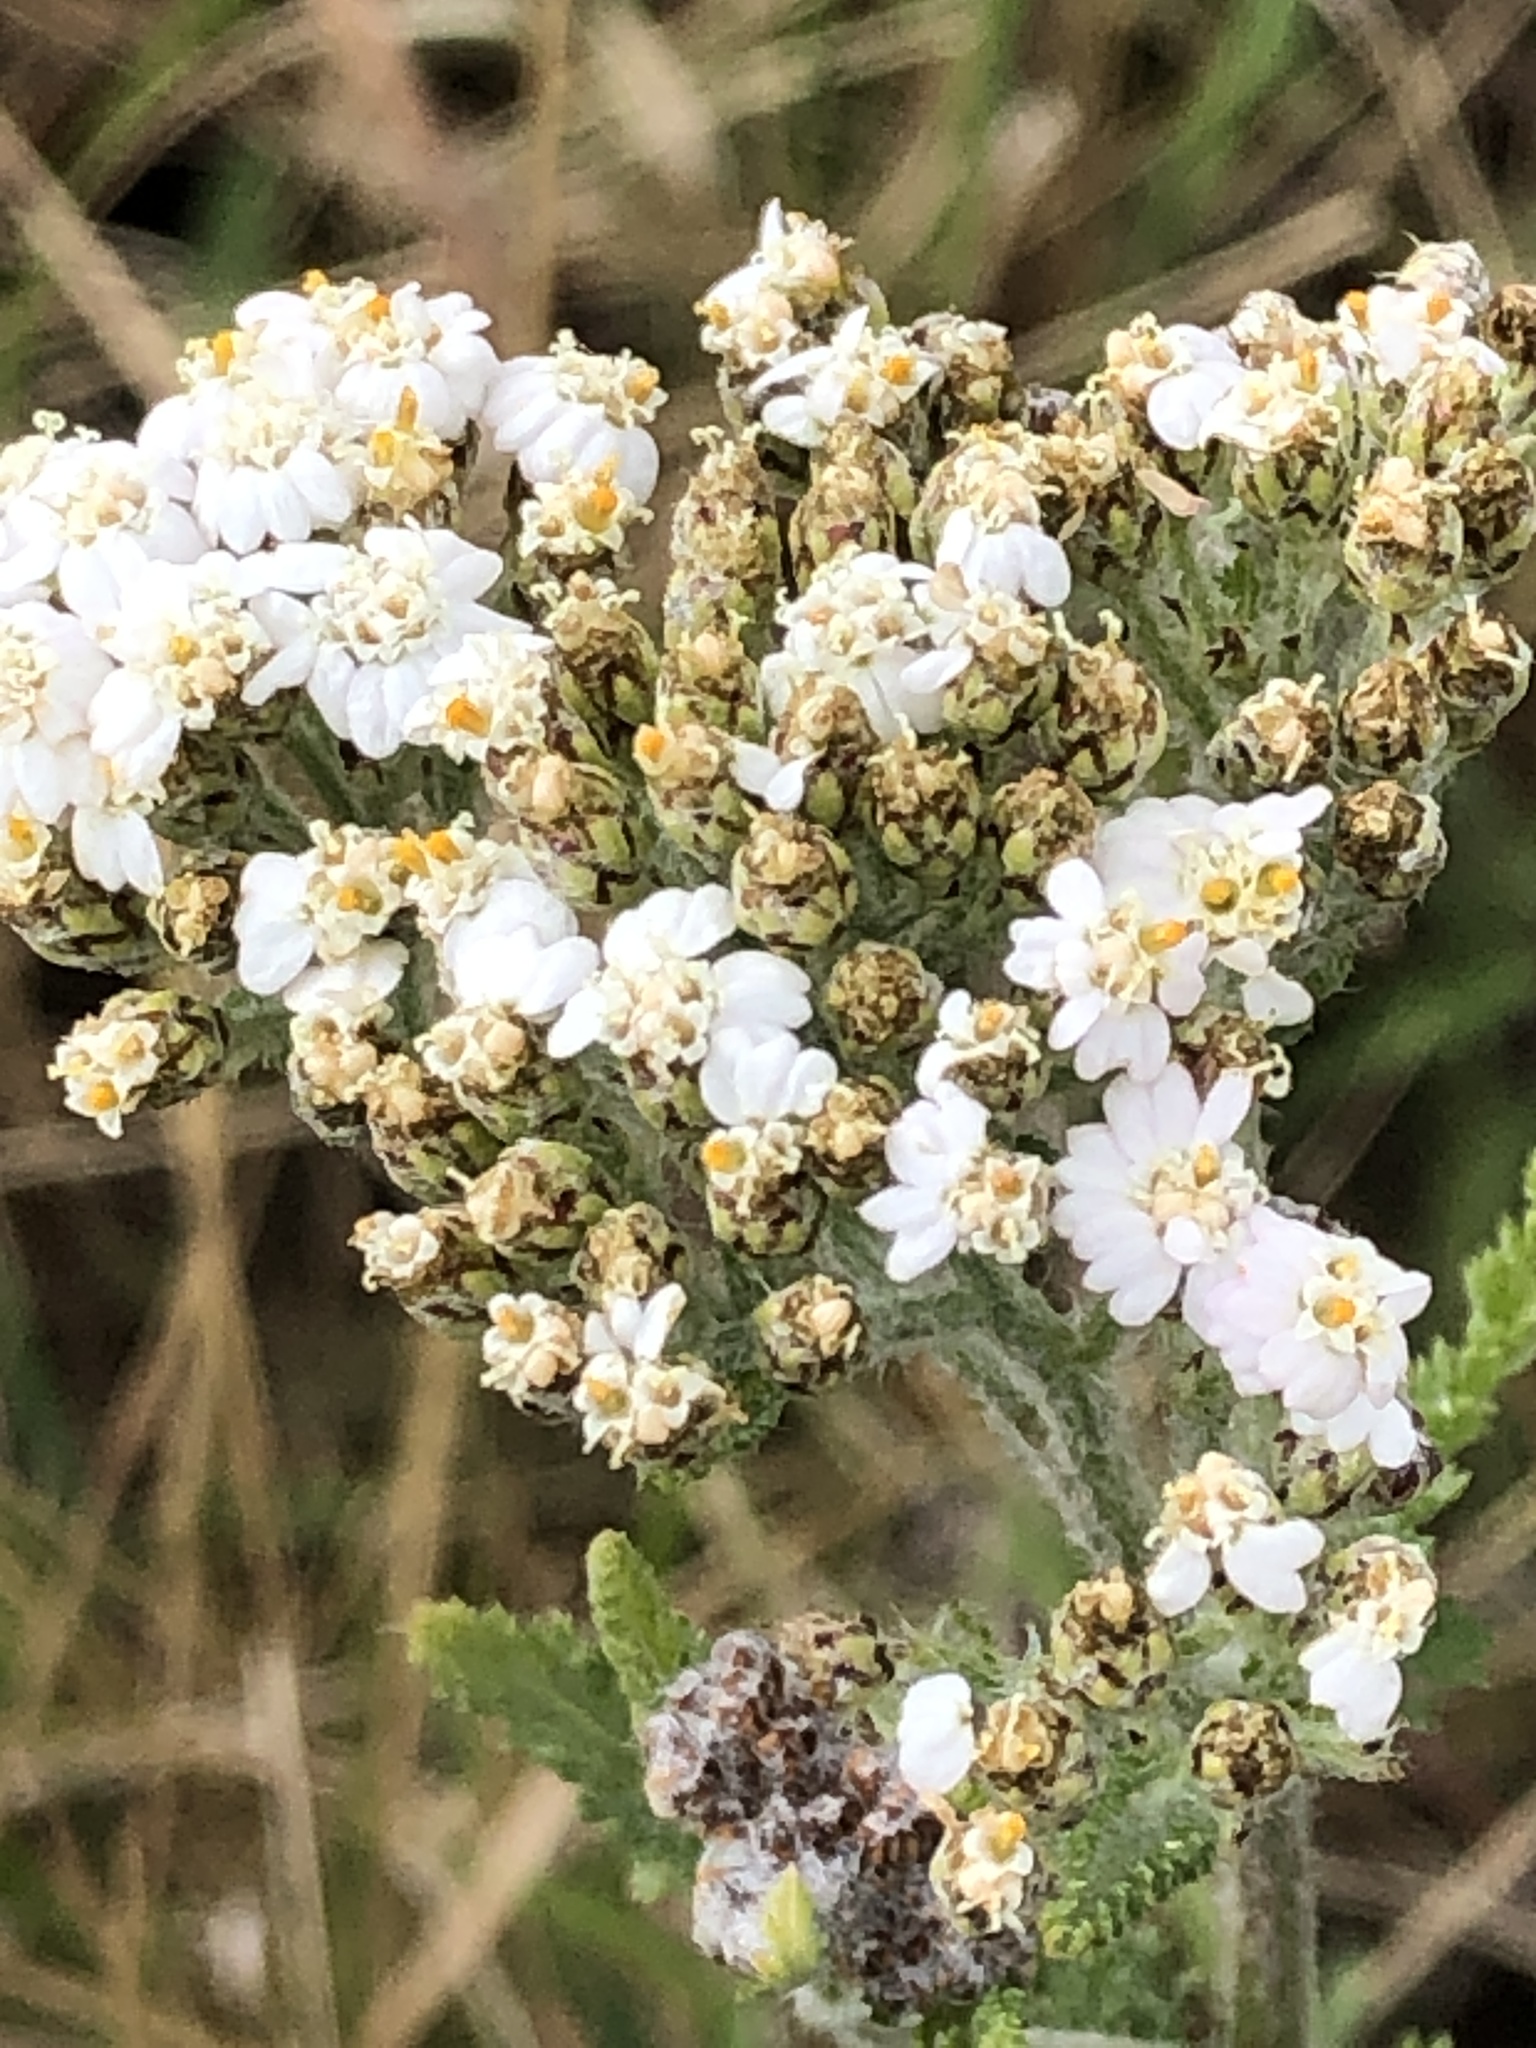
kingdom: Plantae
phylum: Tracheophyta
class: Magnoliopsida
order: Asterales
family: Asteraceae
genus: Achillea
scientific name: Achillea millefolium
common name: Yarrow
